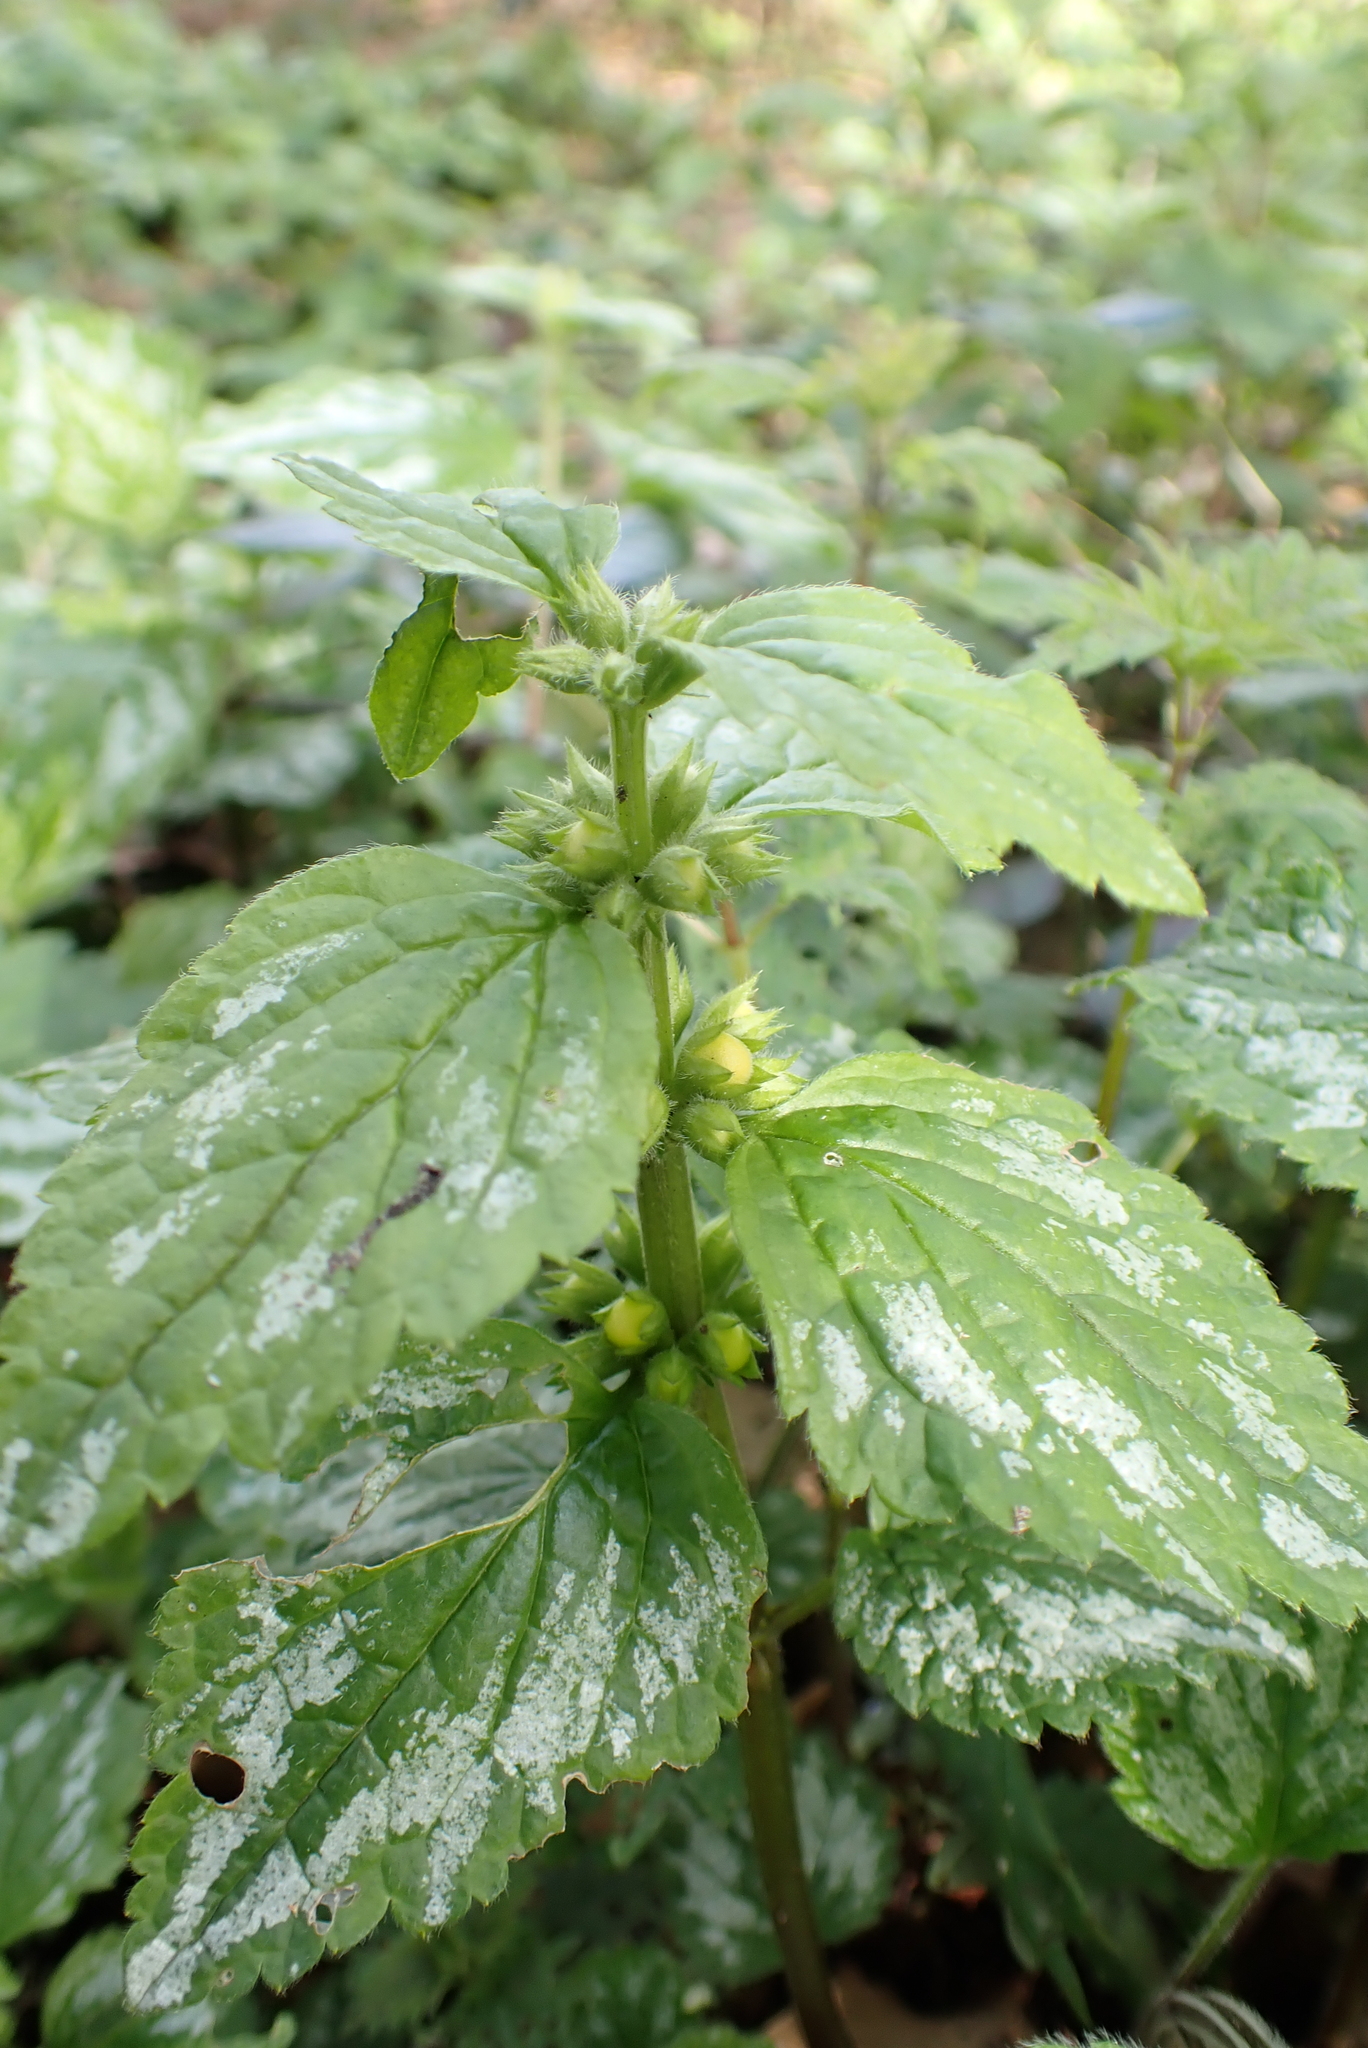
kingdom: Plantae
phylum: Tracheophyta
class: Magnoliopsida
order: Lamiales
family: Lamiaceae
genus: Lamium
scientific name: Lamium galeobdolon
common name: Yellow archangel
